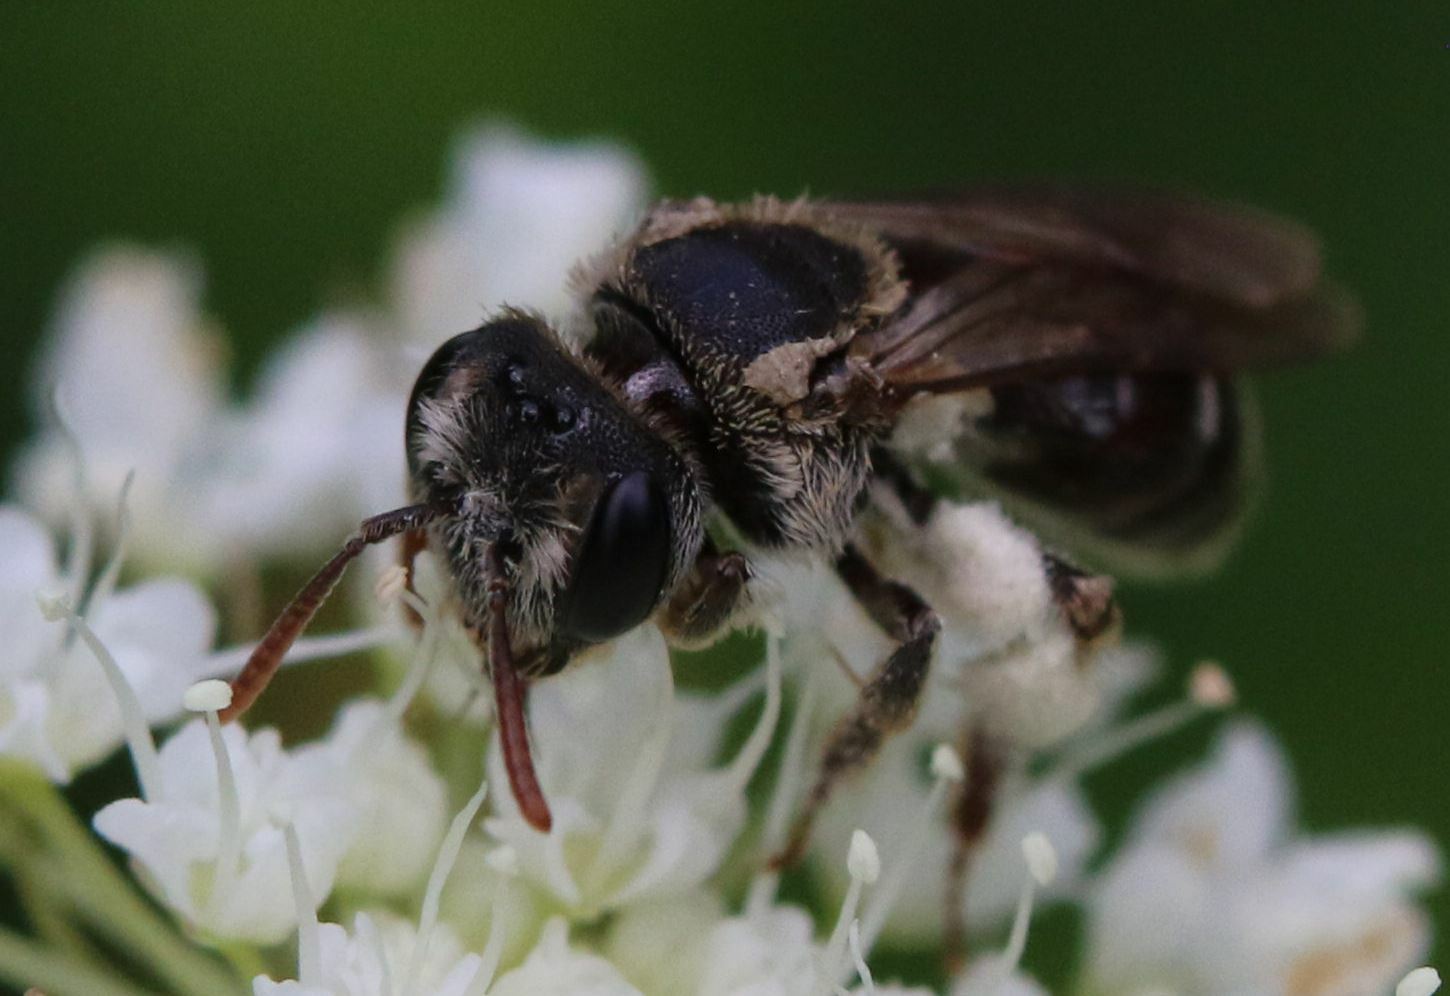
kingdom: Animalia
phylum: Arthropoda
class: Insecta
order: Hymenoptera
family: Andrenidae
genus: Andrena
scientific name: Andrena colletiformis
